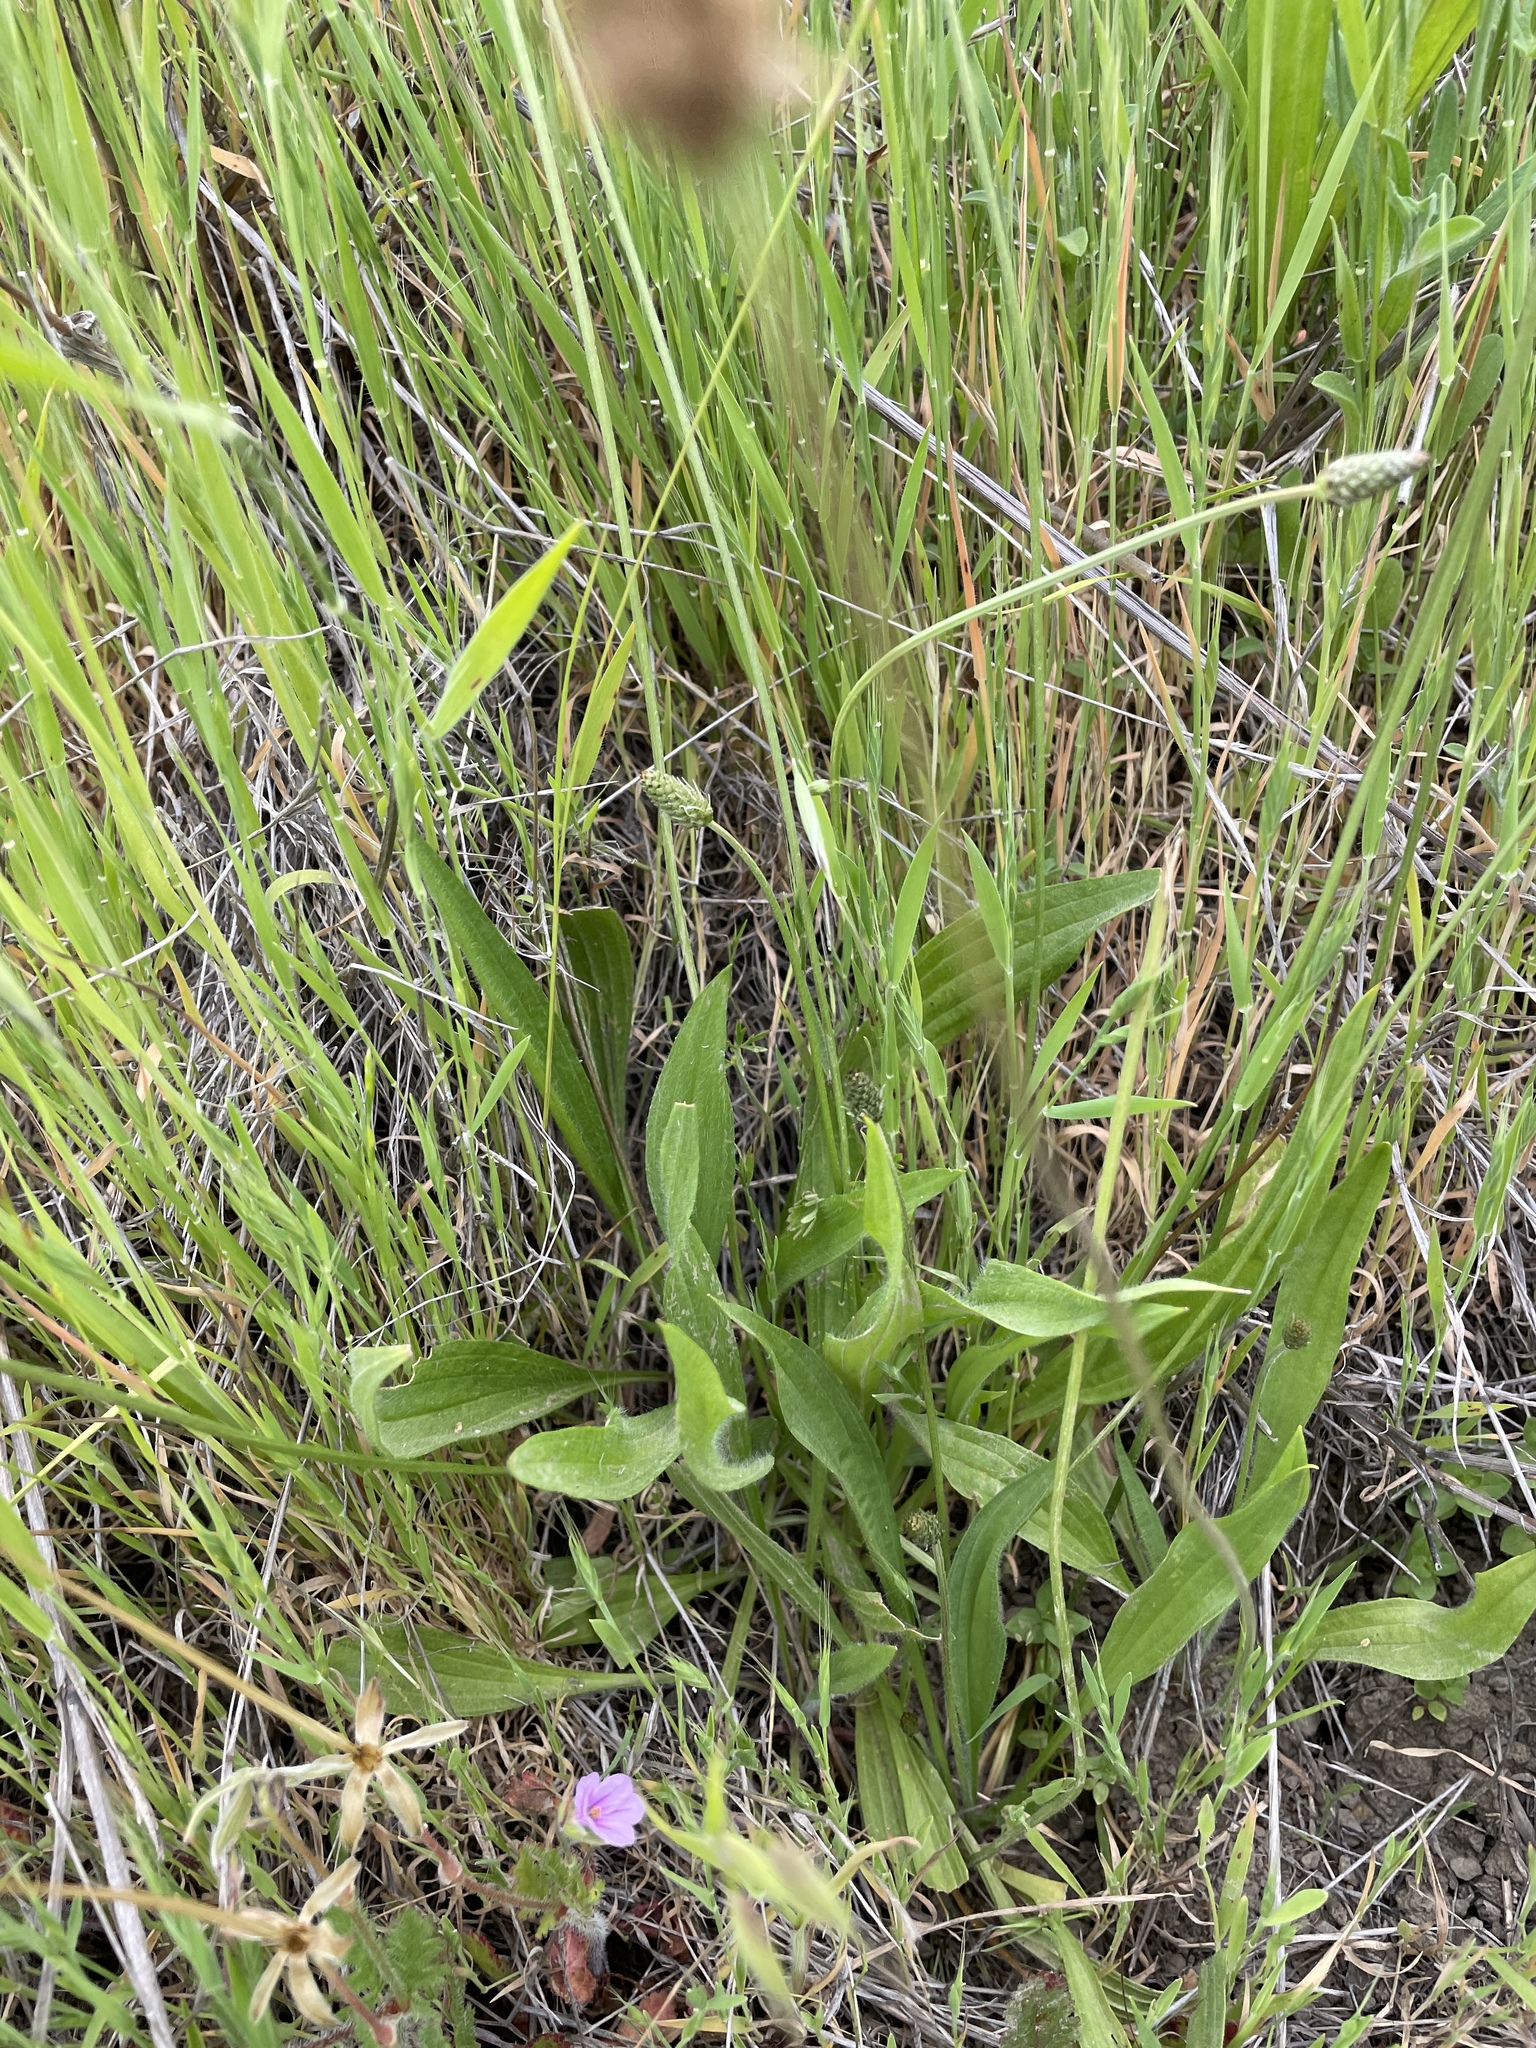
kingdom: Plantae
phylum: Tracheophyta
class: Magnoliopsida
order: Lamiales
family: Plantaginaceae
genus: Plantago
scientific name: Plantago lanceolata
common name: Ribwort plantain
